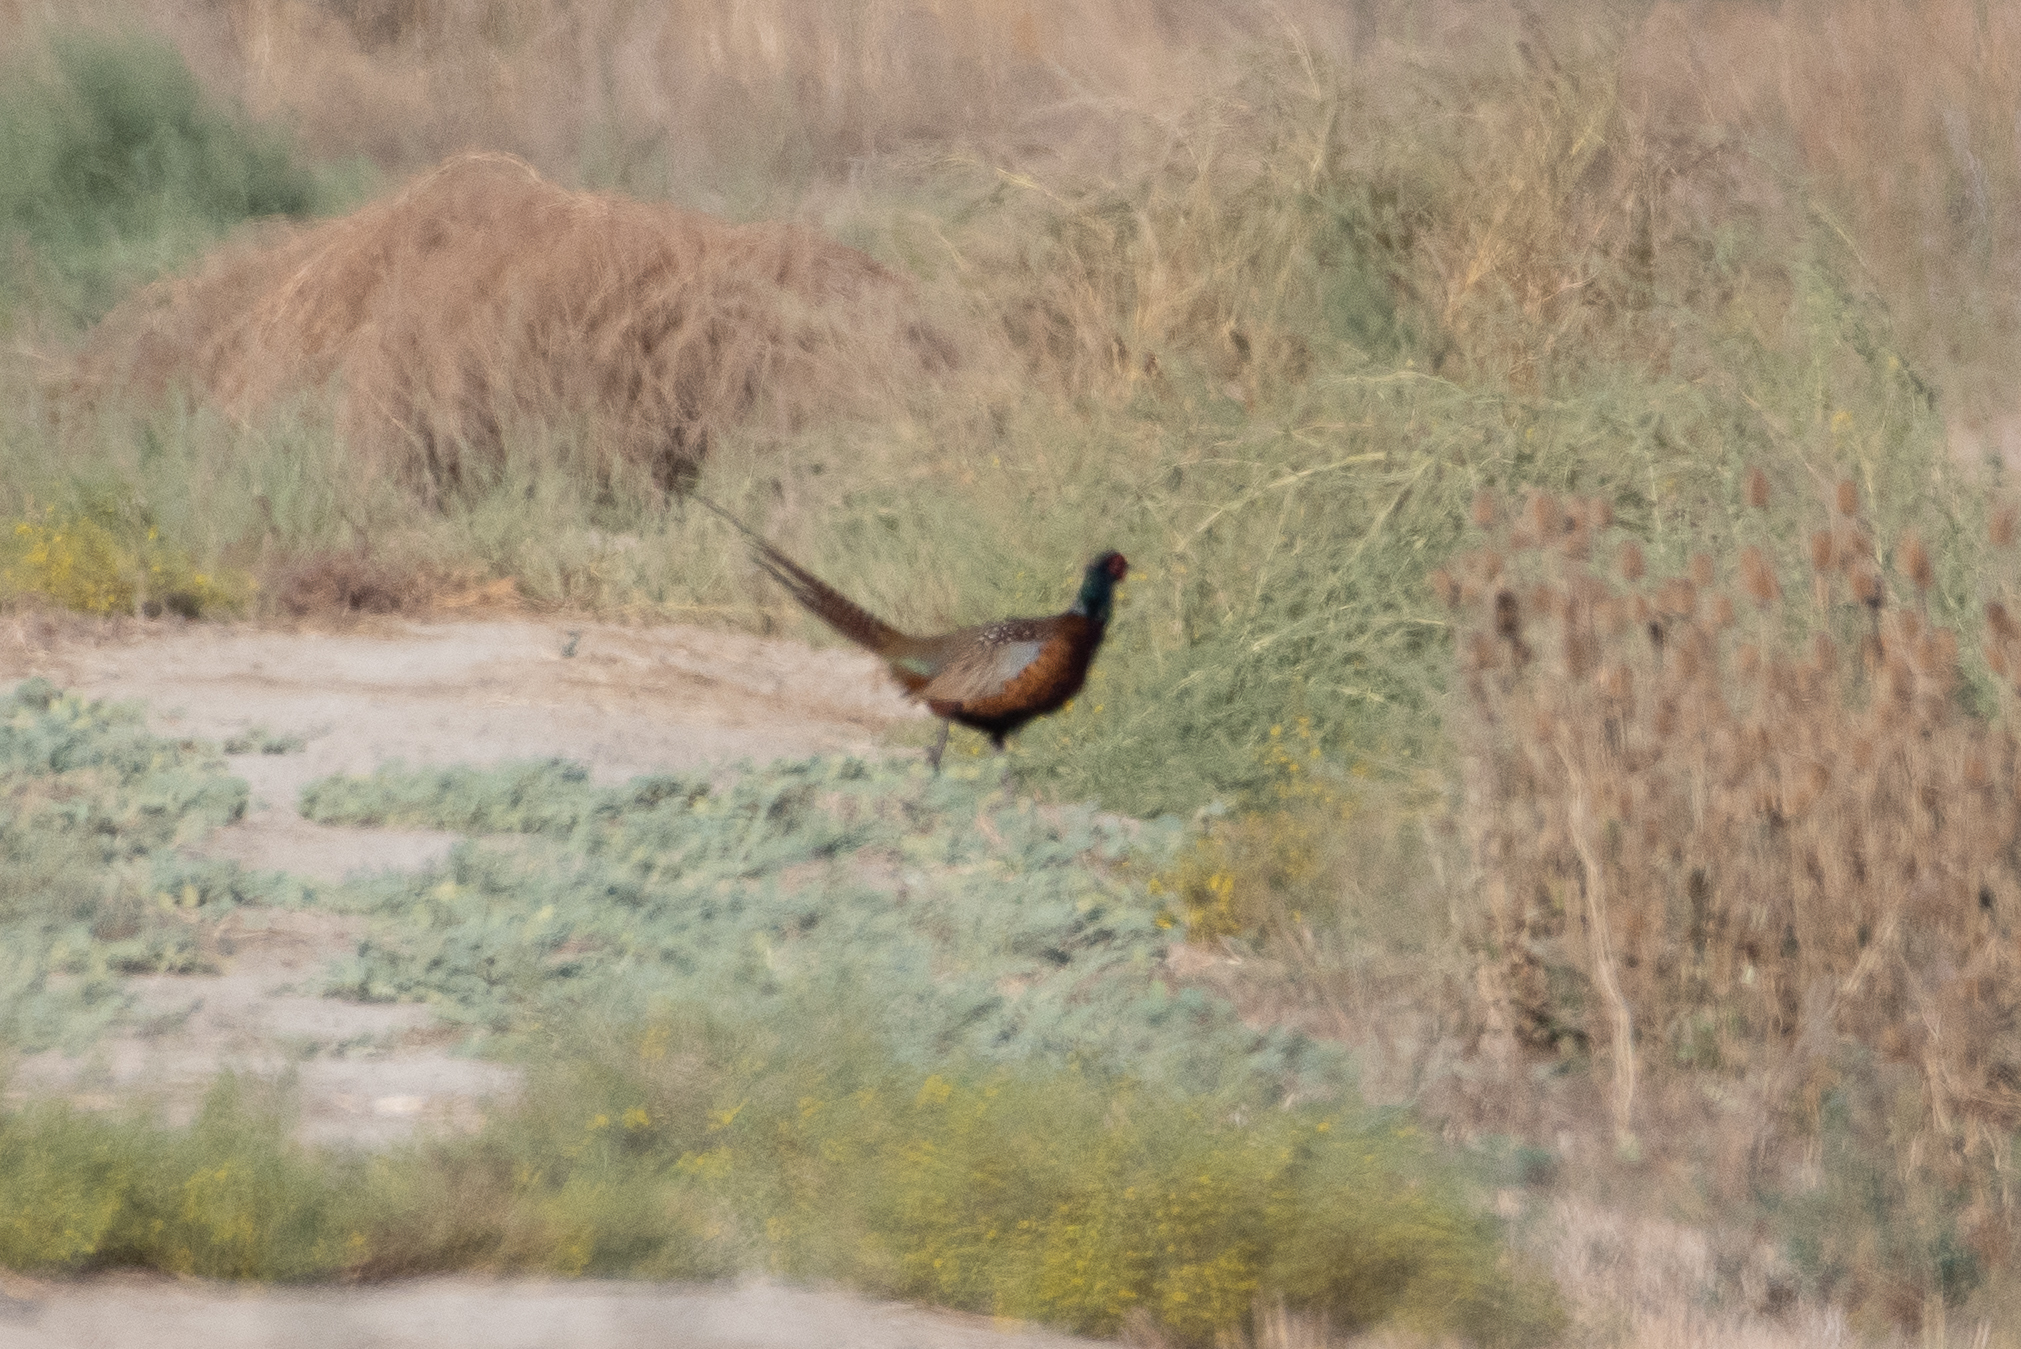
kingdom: Animalia
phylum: Chordata
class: Aves
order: Galliformes
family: Phasianidae
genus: Phasianus
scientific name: Phasianus colchicus
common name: Common pheasant
